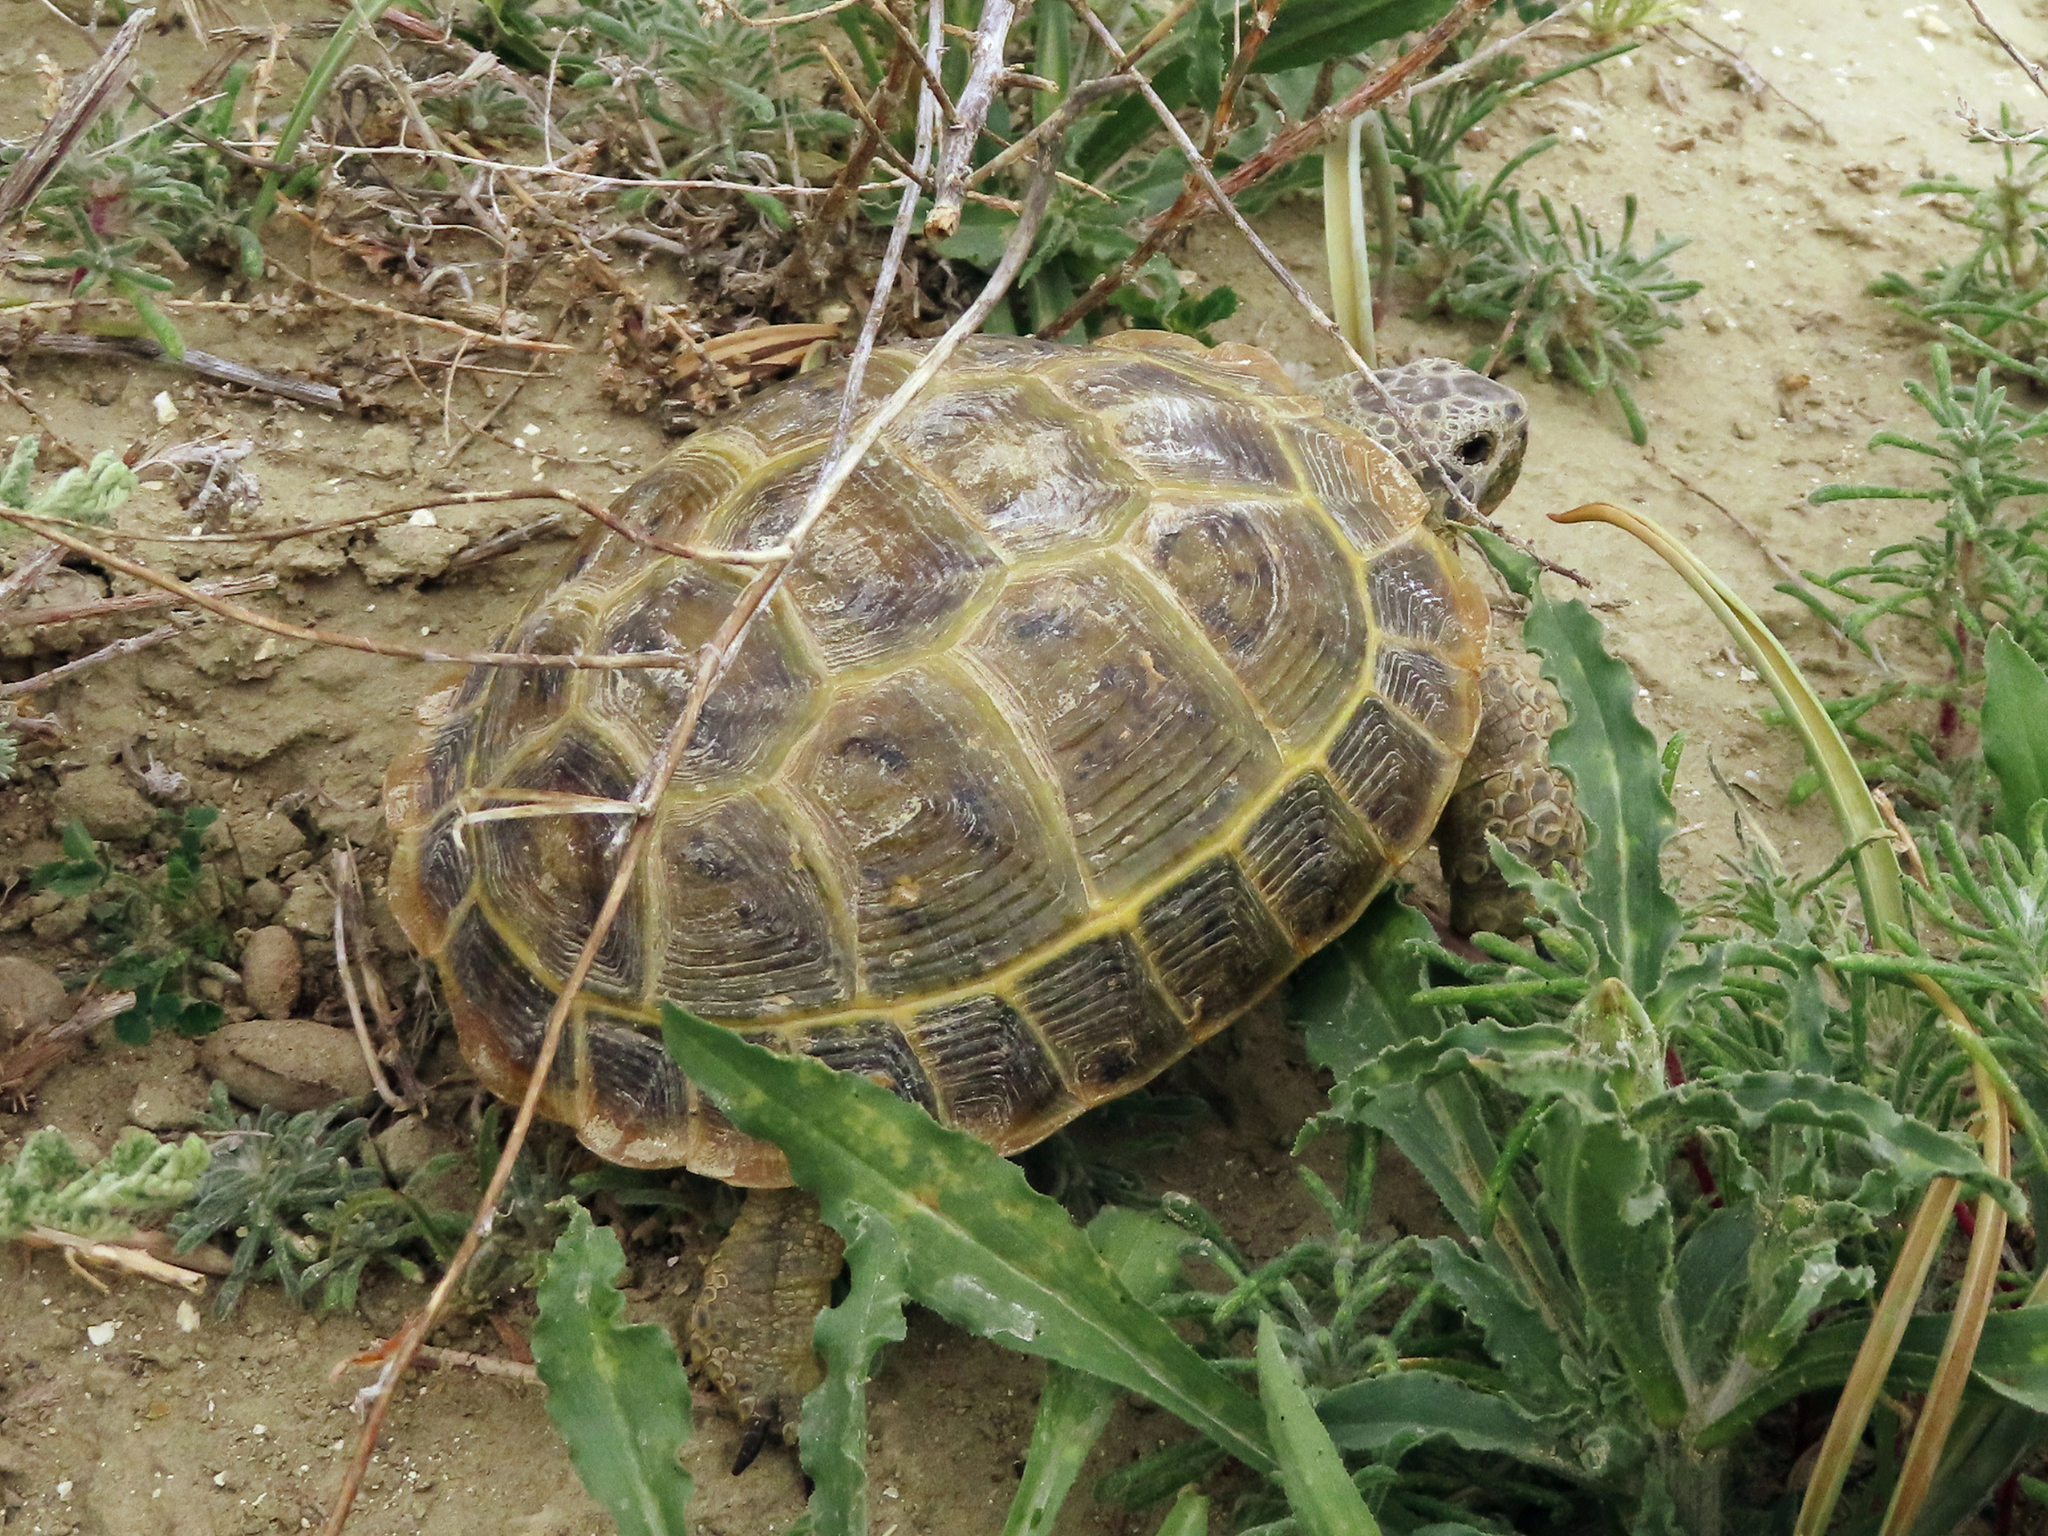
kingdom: Animalia
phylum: Chordata
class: Testudines
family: Testudinidae
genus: Testudo
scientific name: Testudo horsfieldii
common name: Central asia tortoise
